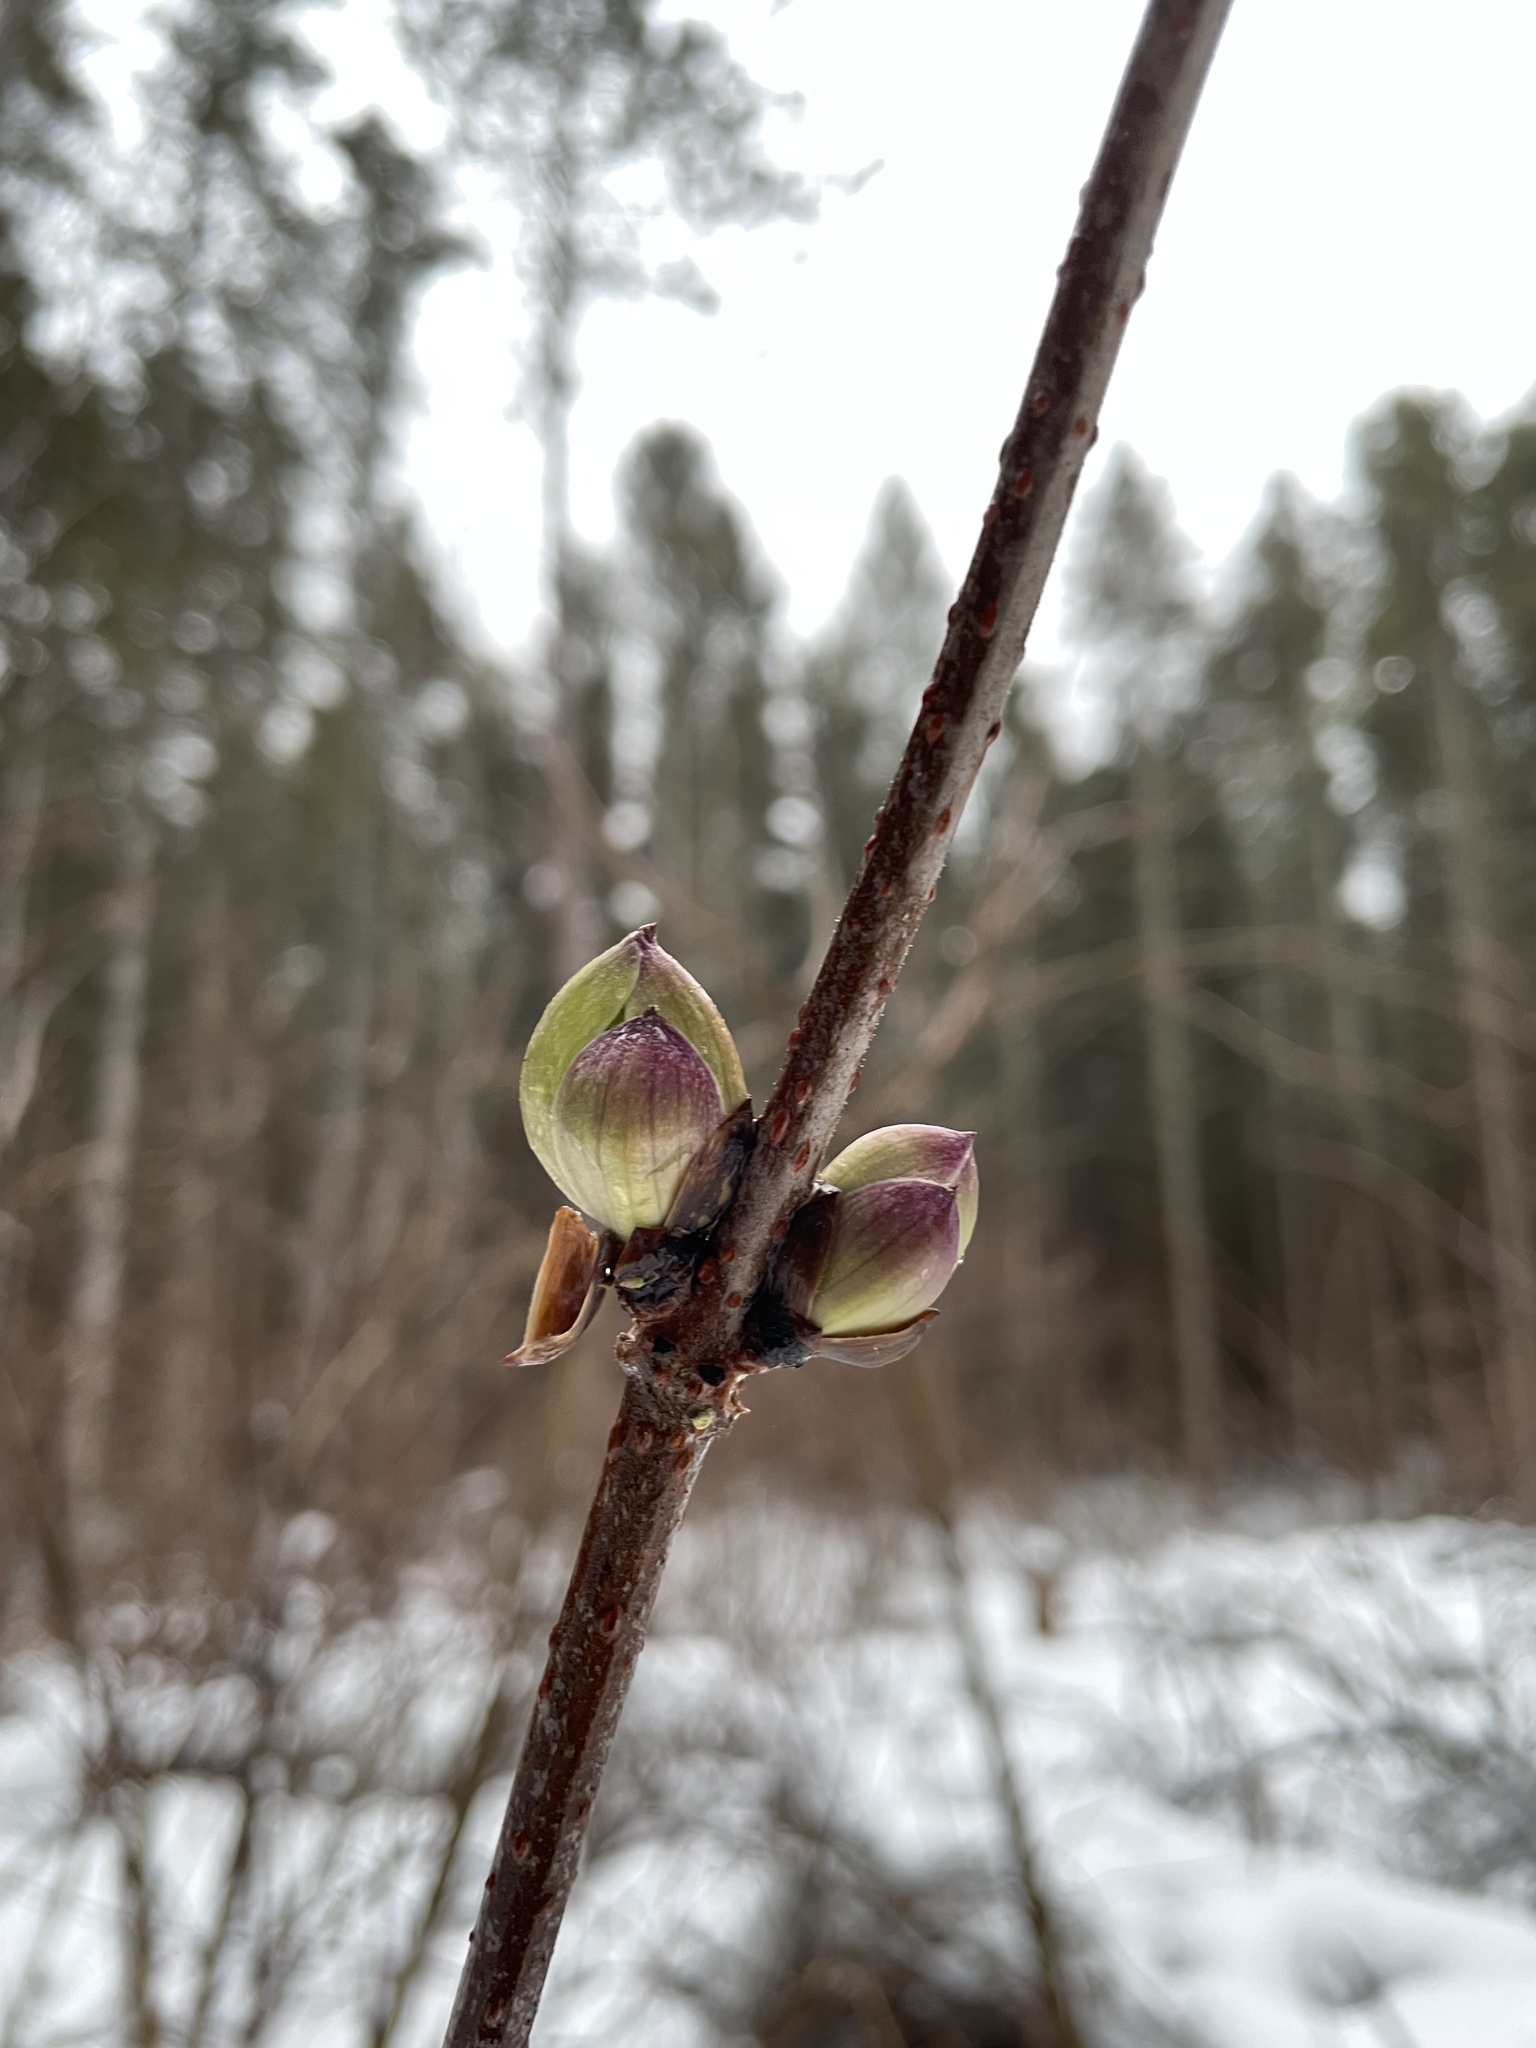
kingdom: Plantae
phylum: Tracheophyta
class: Magnoliopsida
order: Dipsacales
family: Viburnaceae
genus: Sambucus
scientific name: Sambucus racemosa
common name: Red-berried elder
